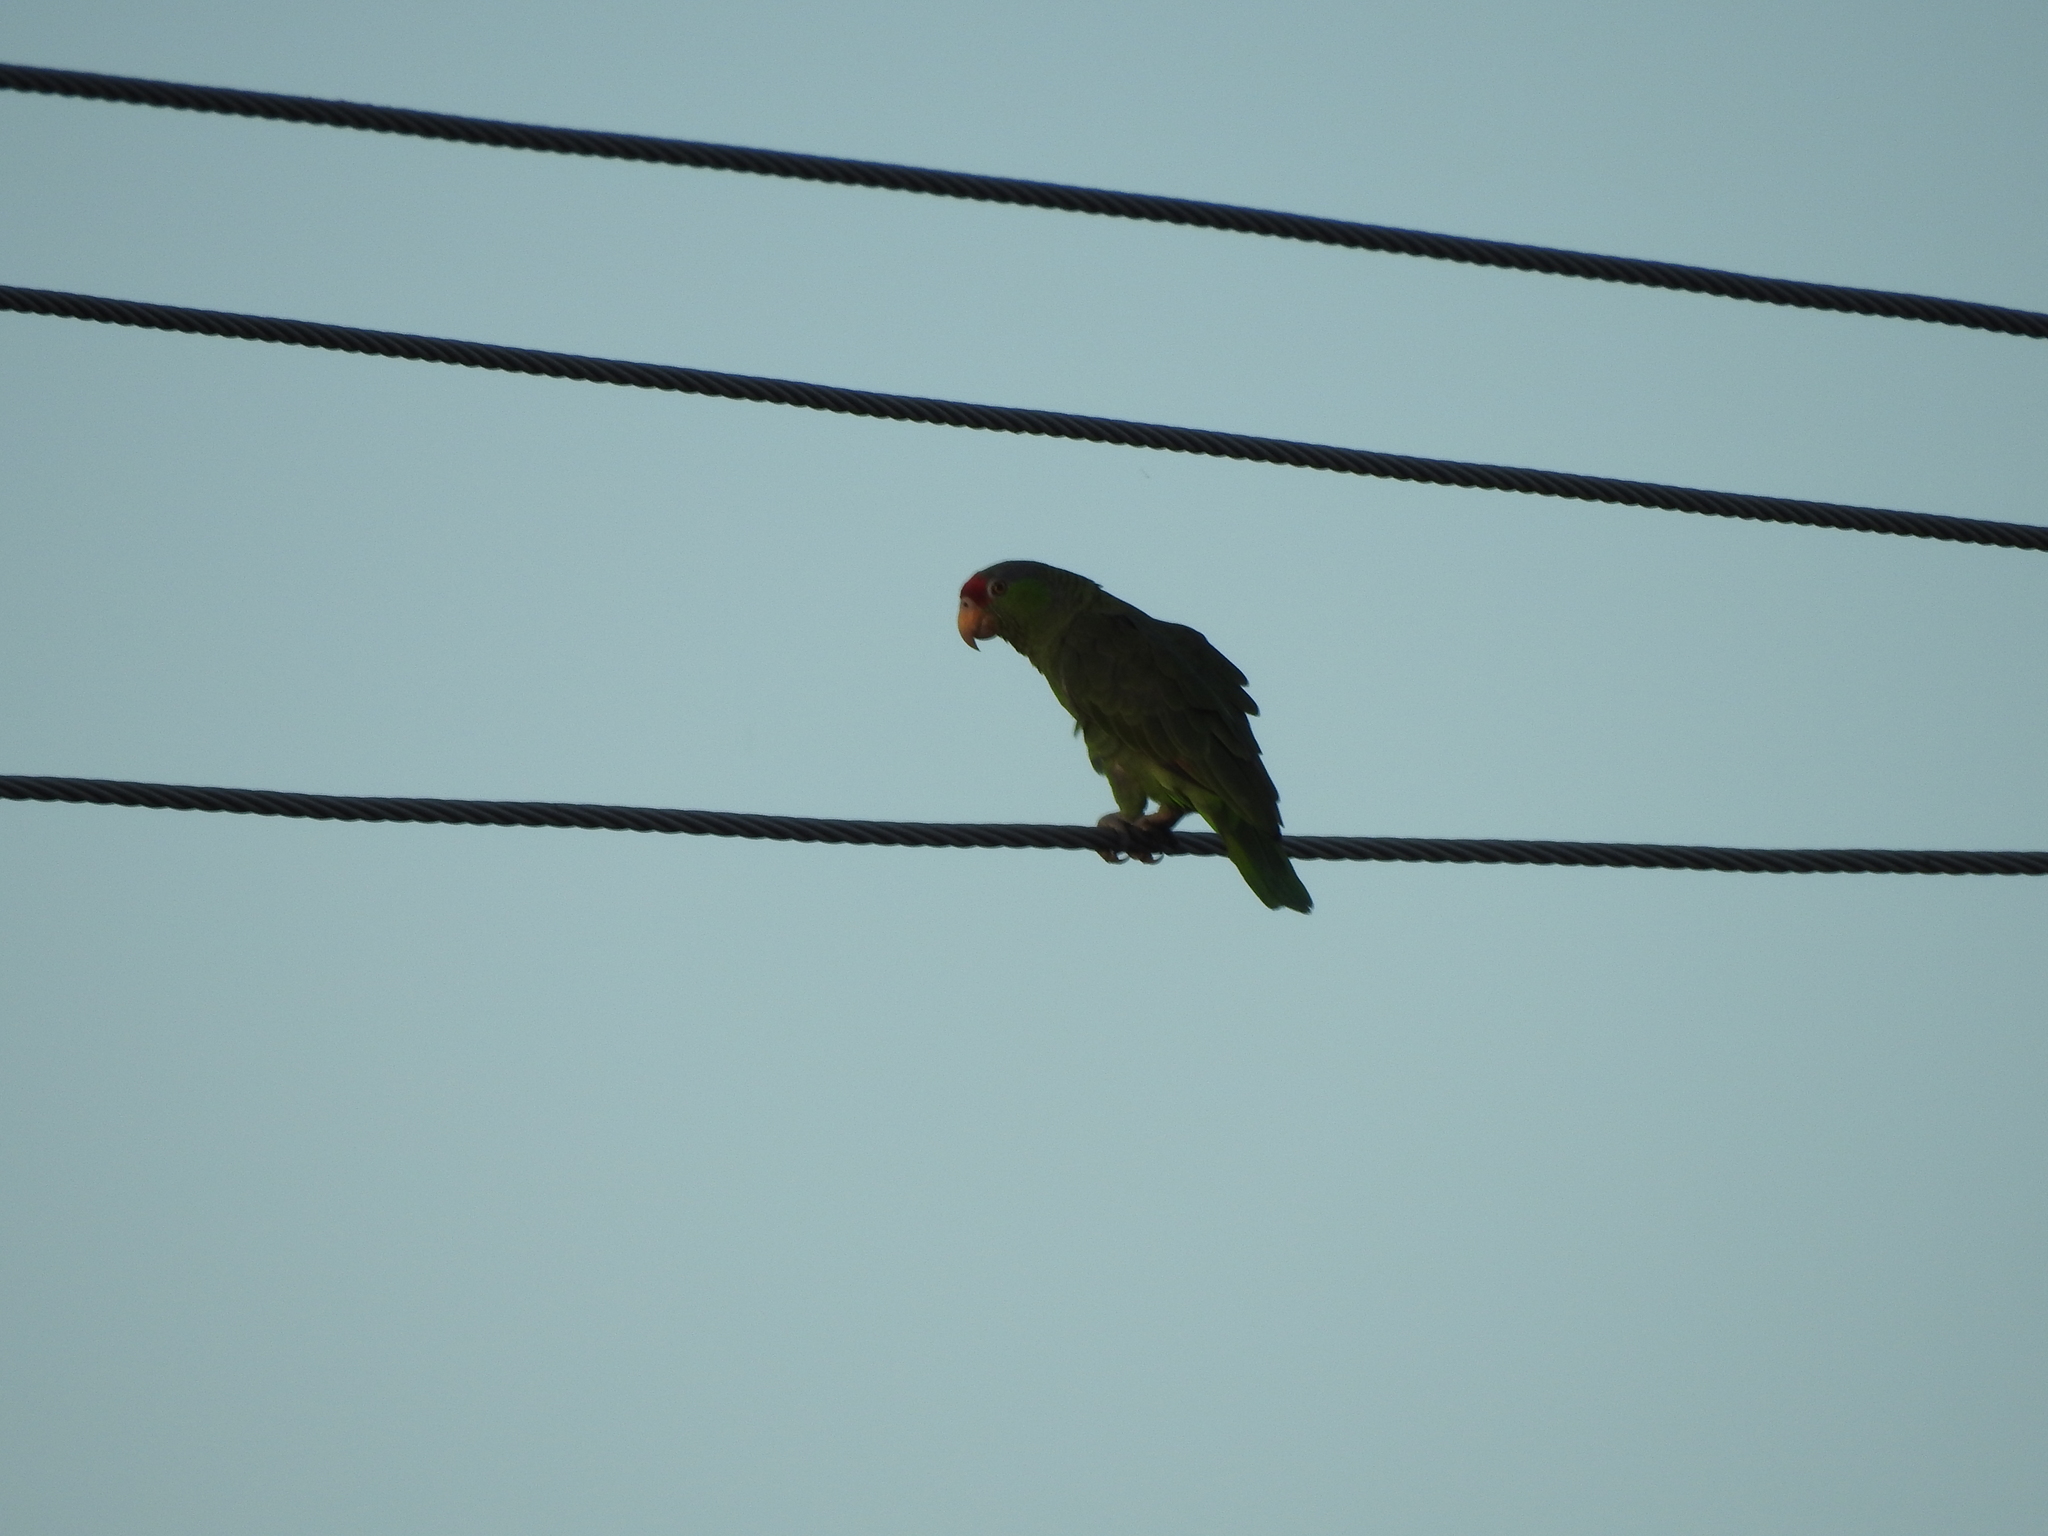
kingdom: Animalia
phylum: Chordata
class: Aves
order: Psittaciformes
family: Psittacidae
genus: Amazona
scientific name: Amazona viridigenalis
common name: Red-crowned amazon
